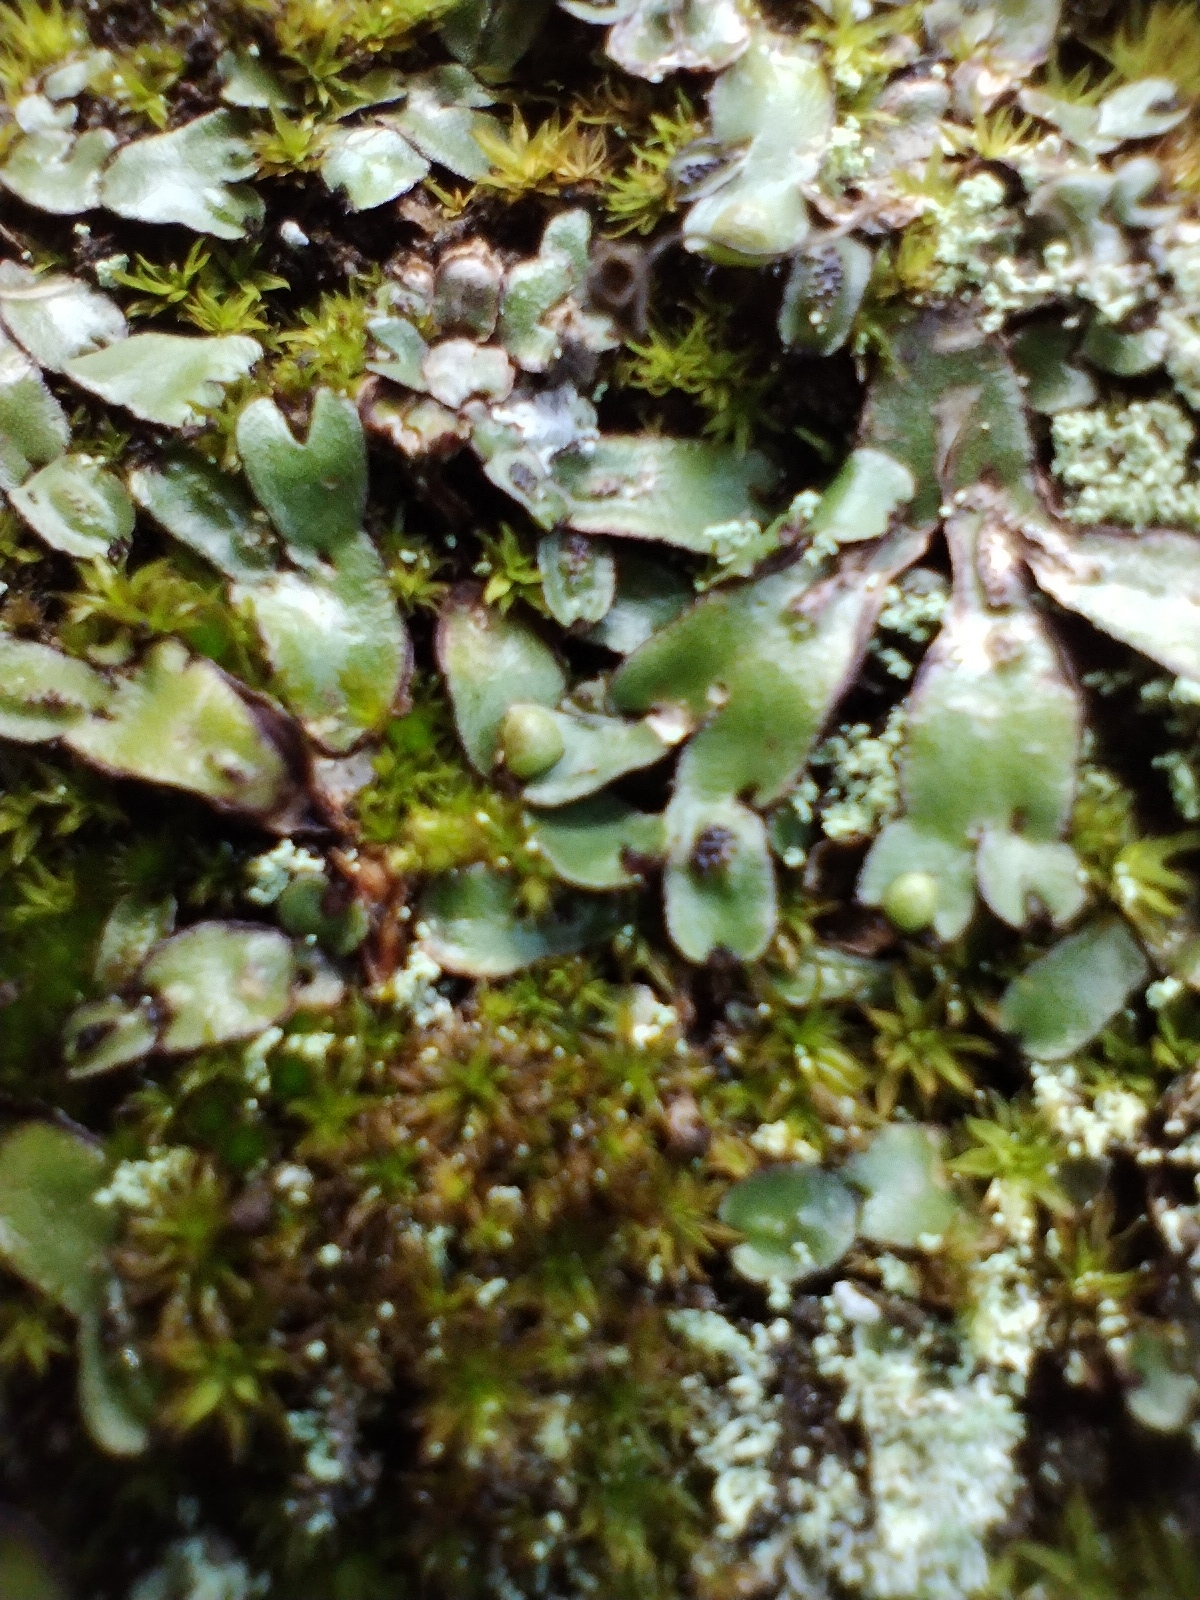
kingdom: Plantae
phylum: Marchantiophyta
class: Marchantiopsida
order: Marchantiales
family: Aytoniaceae
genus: Mannia
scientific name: Mannia androgyna
